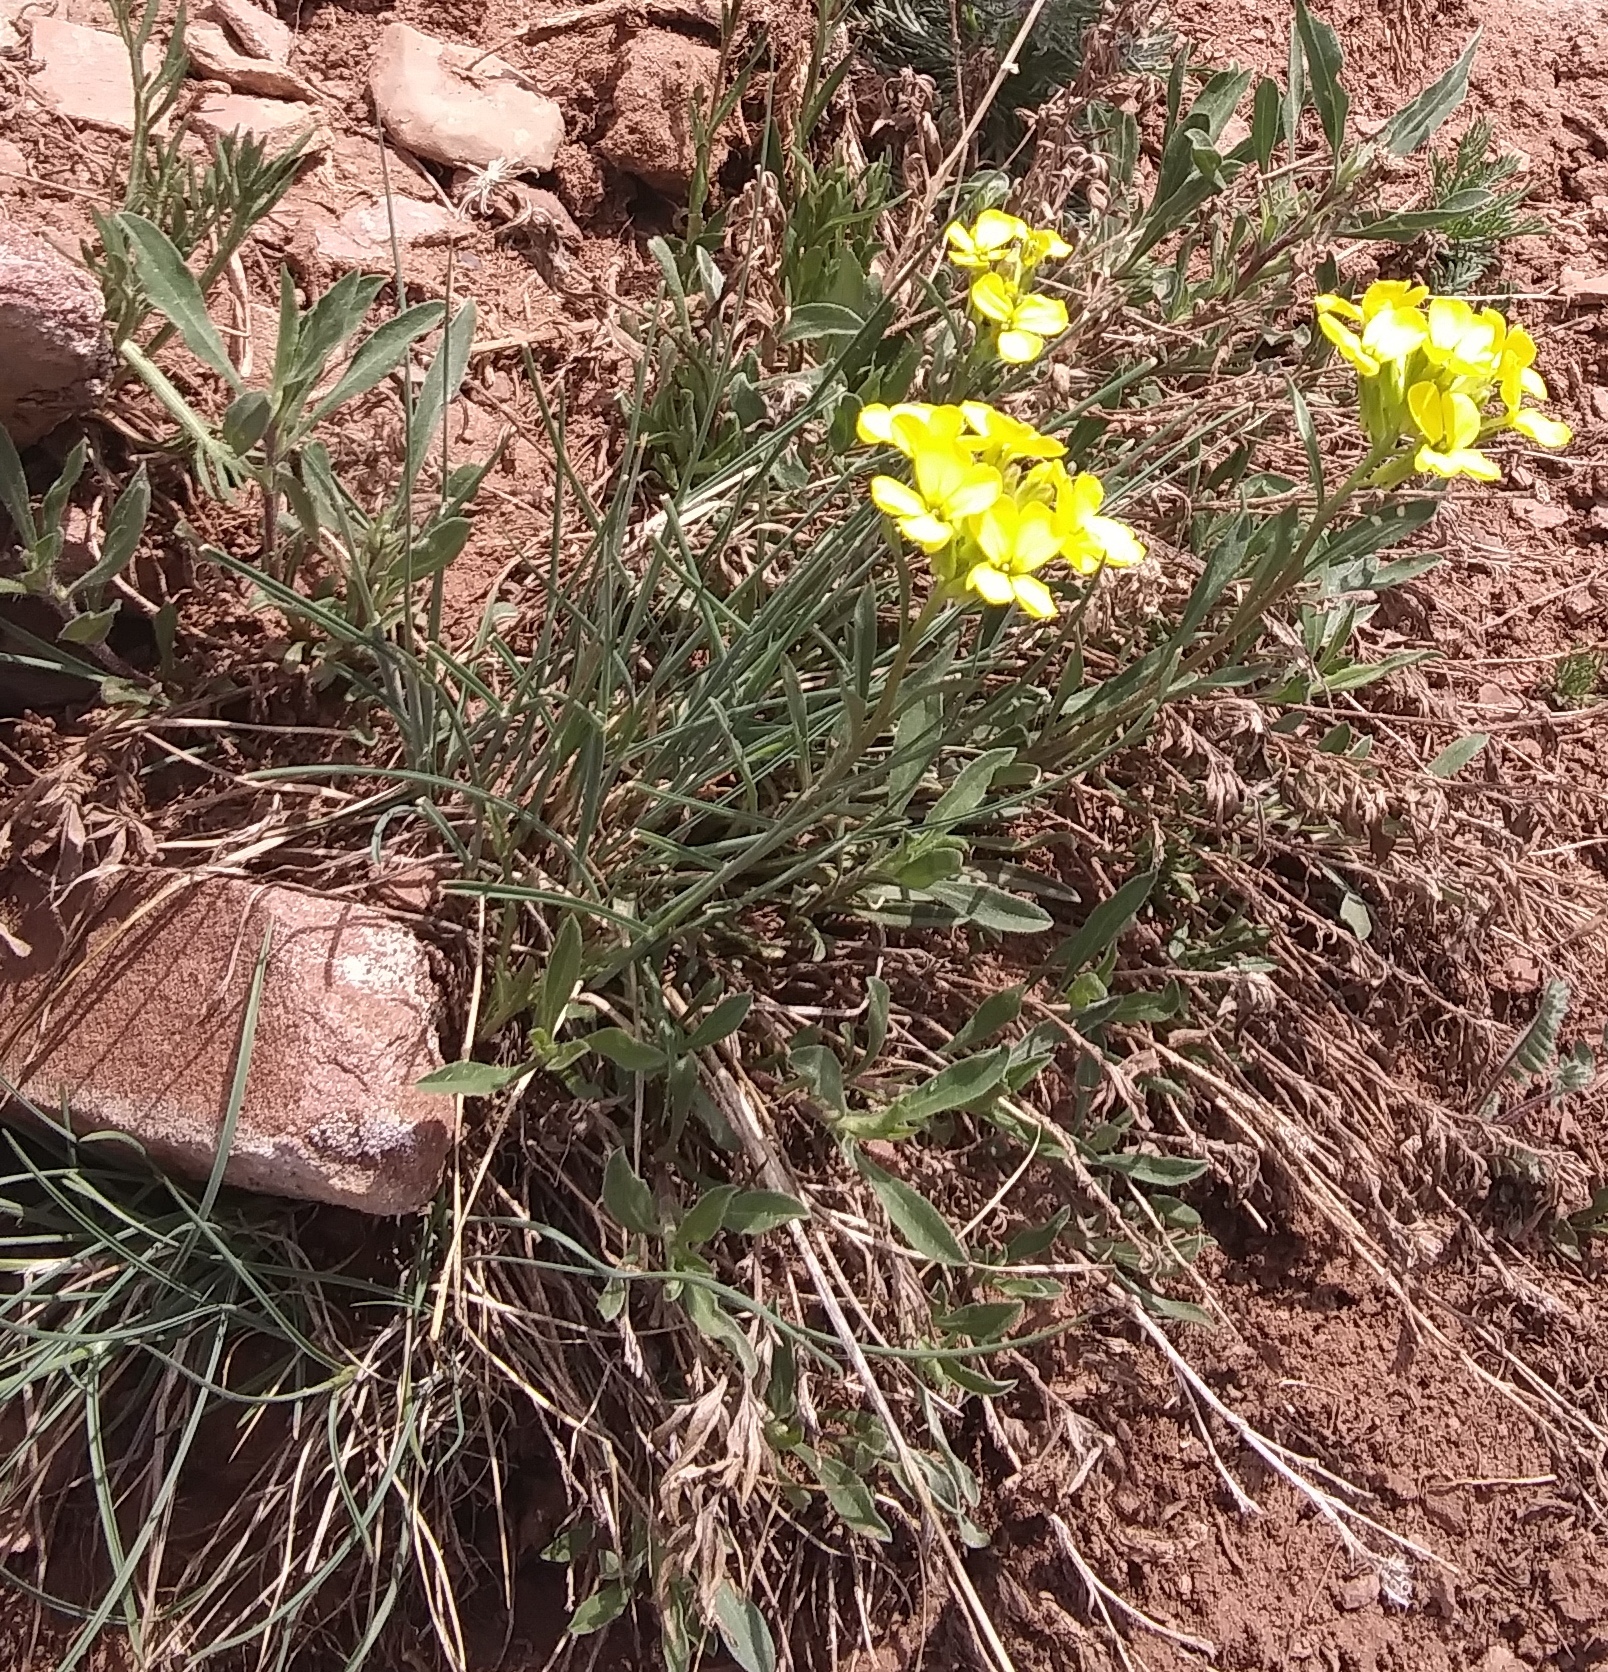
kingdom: Plantae
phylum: Tracheophyta
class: Magnoliopsida
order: Brassicales
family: Brassicaceae
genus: Erysimum
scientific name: Erysimum capitatum
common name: Western wallflower
